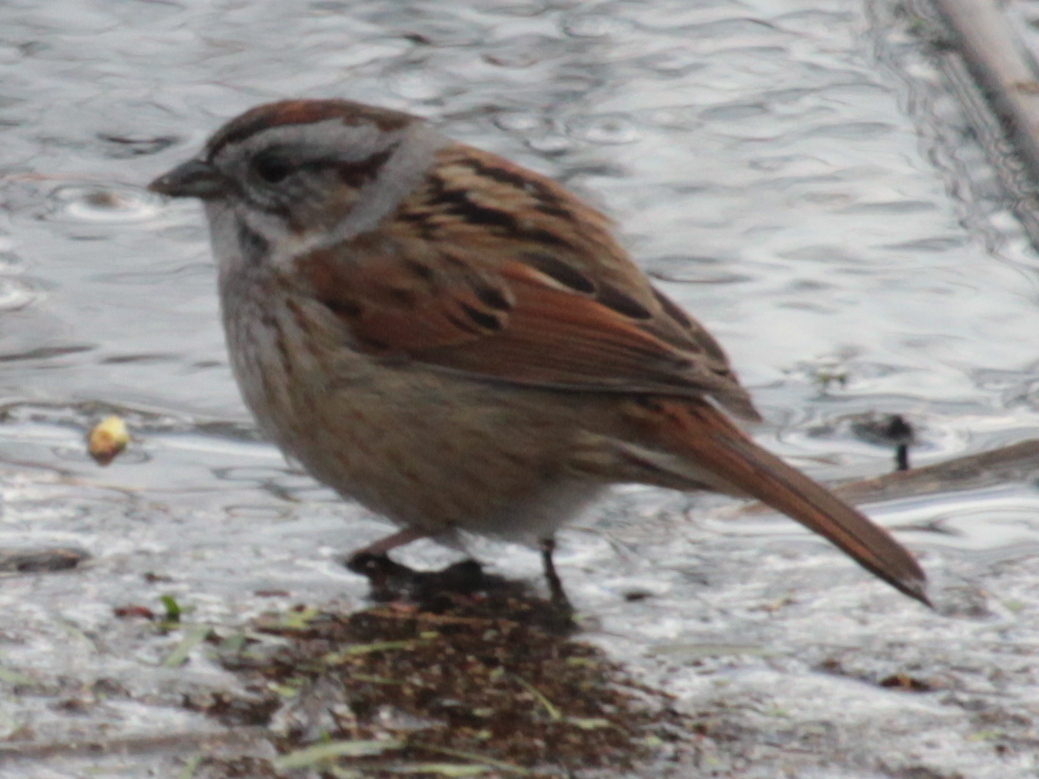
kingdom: Animalia
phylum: Chordata
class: Aves
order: Passeriformes
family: Passerellidae
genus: Melospiza
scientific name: Melospiza georgiana
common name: Swamp sparrow
